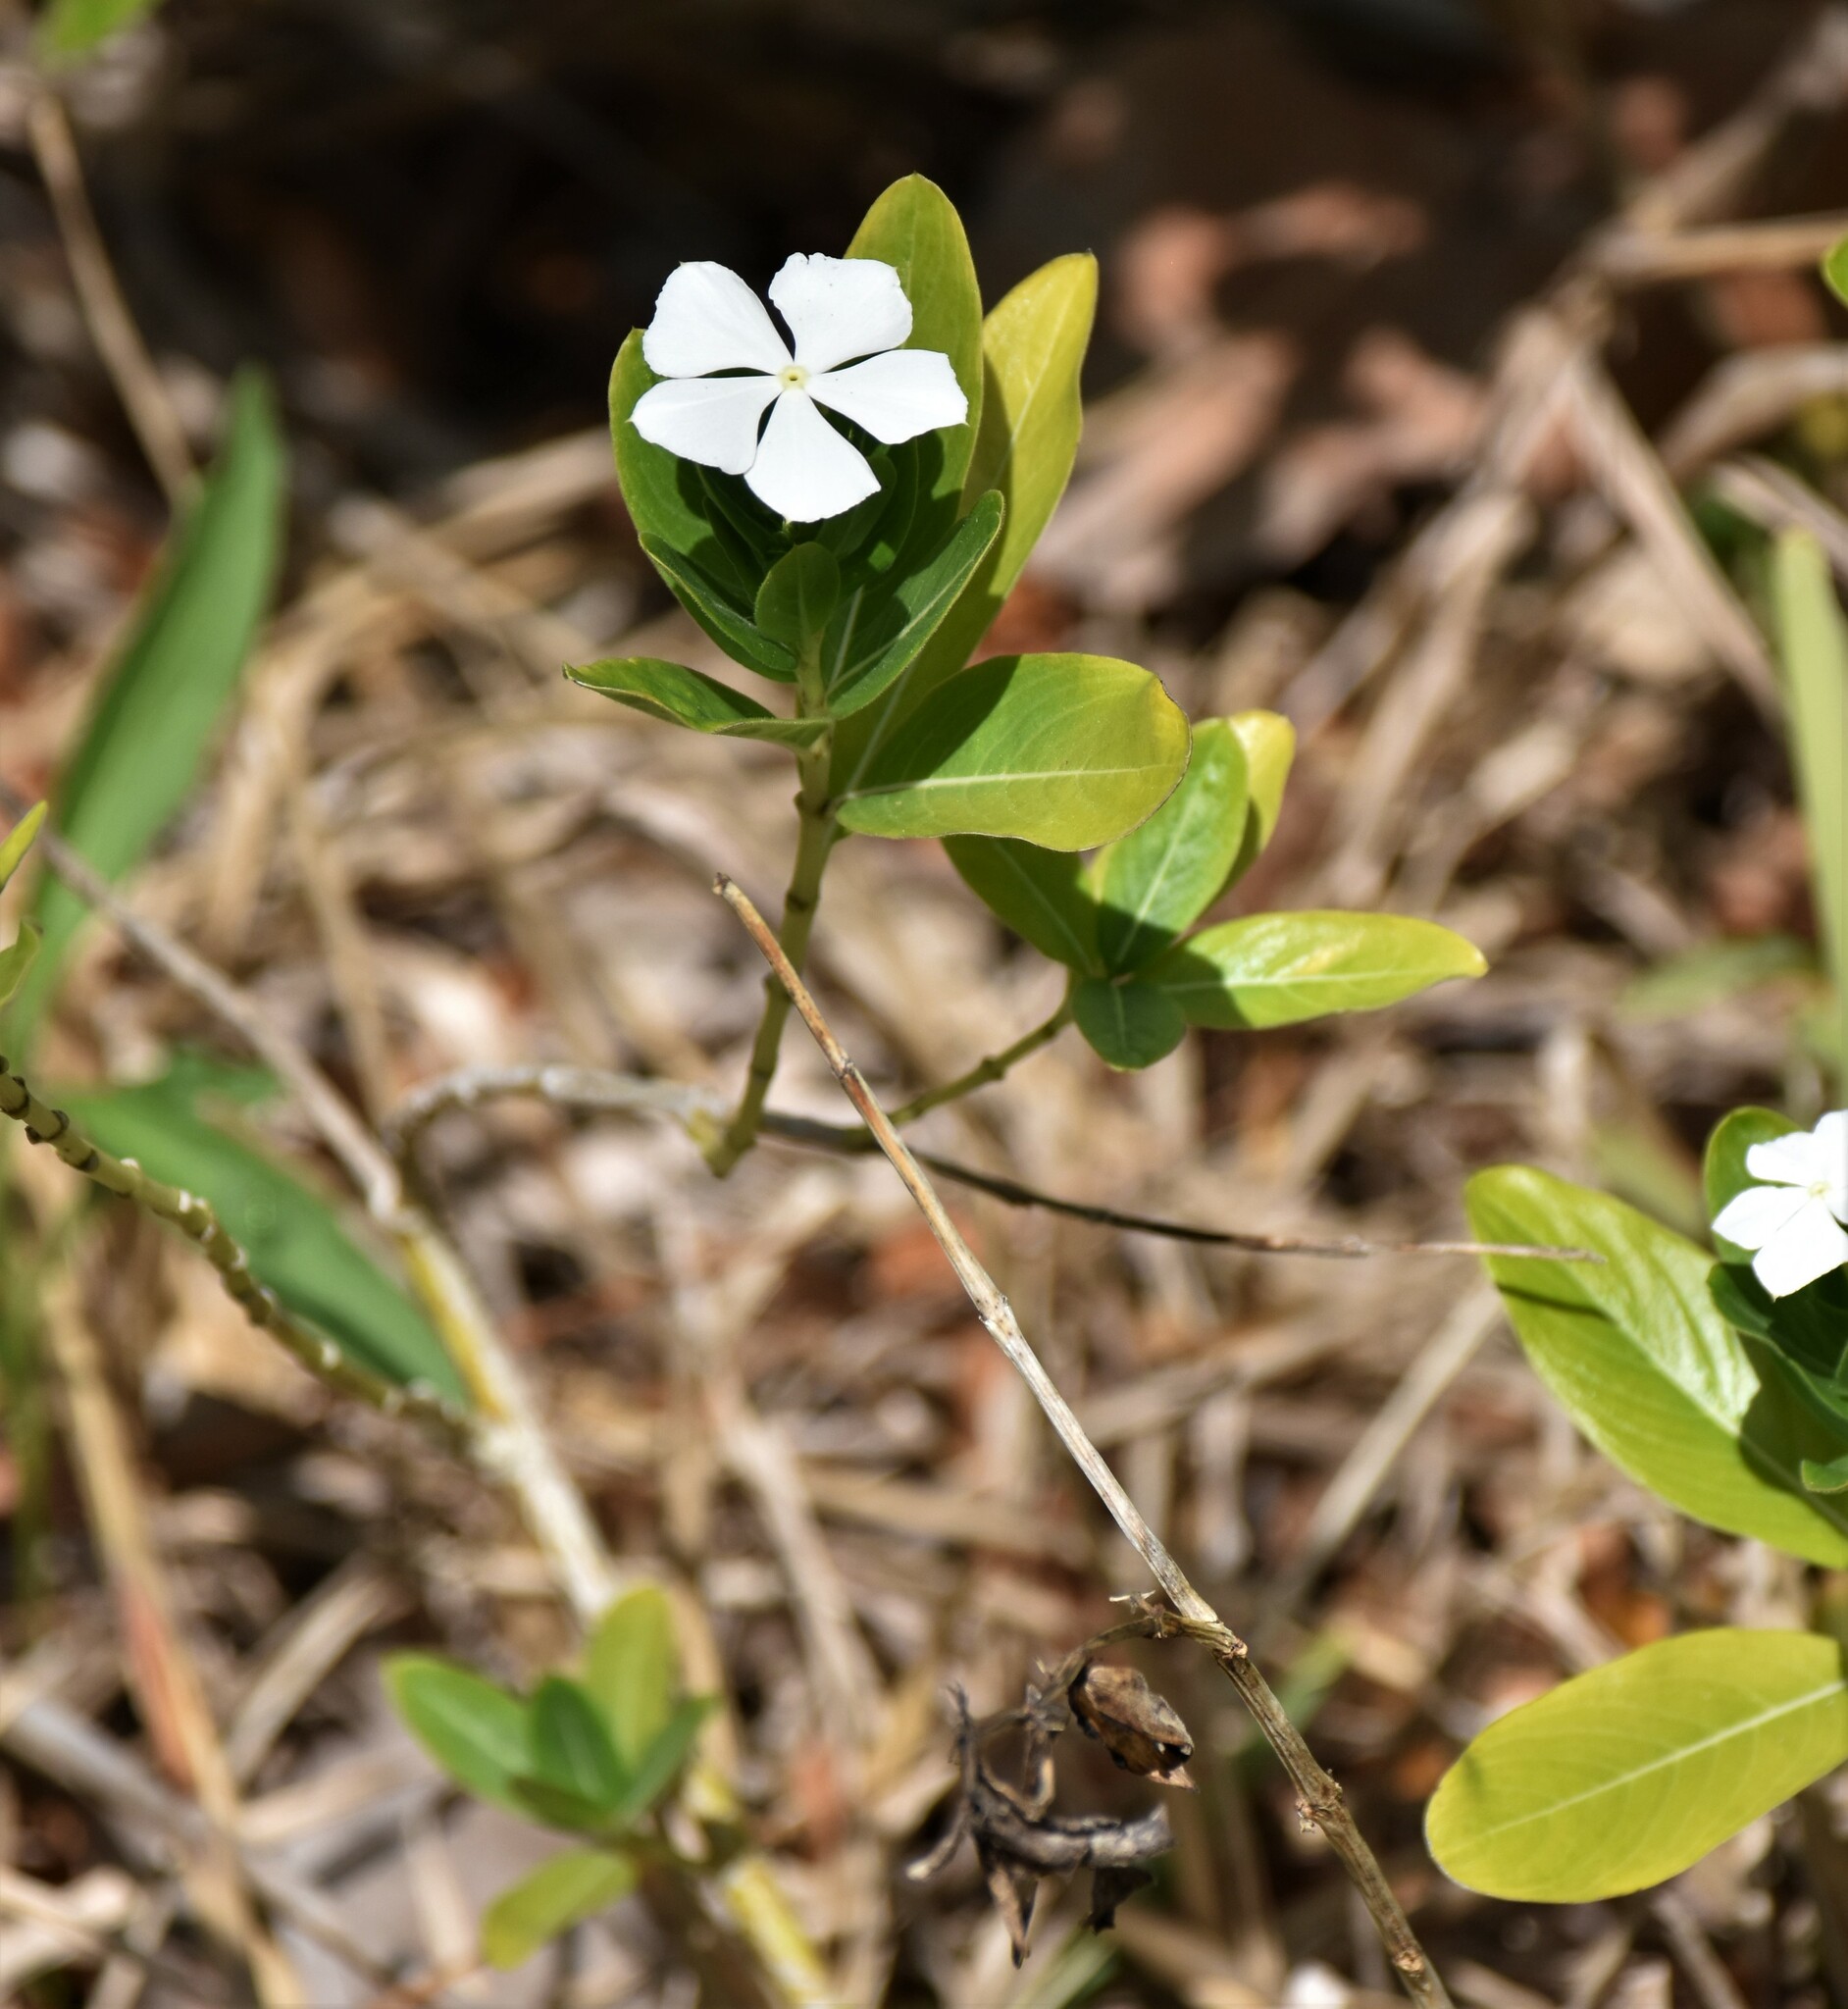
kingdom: Plantae
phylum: Tracheophyta
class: Magnoliopsida
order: Gentianales
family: Apocynaceae
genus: Catharanthus
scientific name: Catharanthus roseus
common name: Madagascar periwinkle
